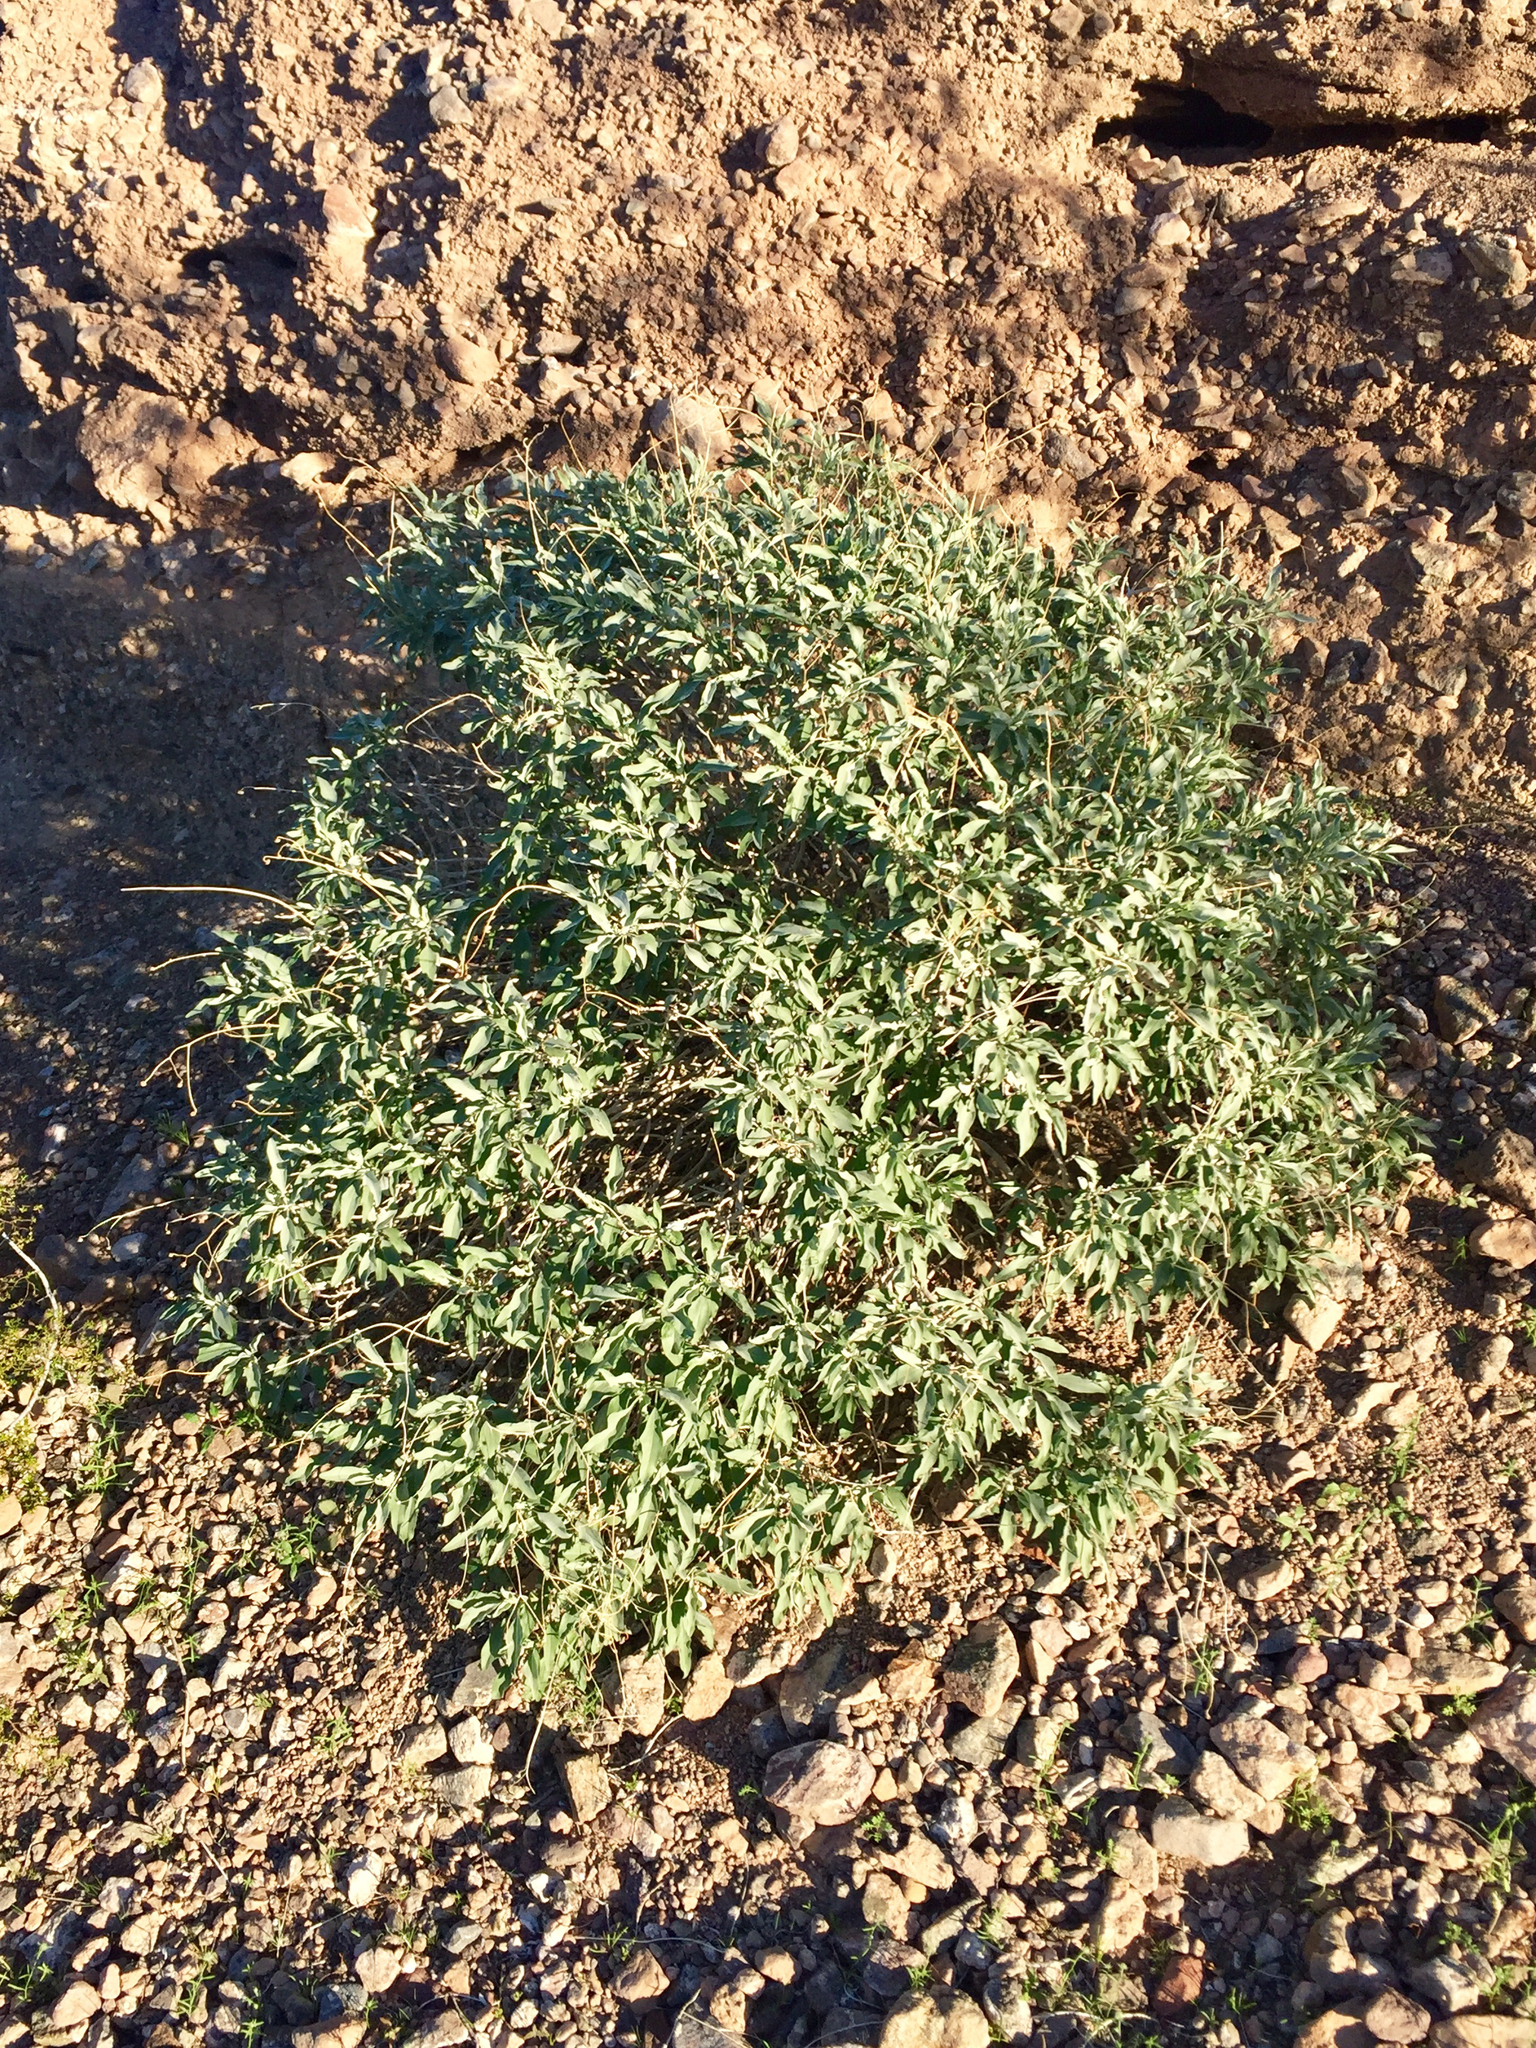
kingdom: Plantae
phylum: Tracheophyta
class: Magnoliopsida
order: Asterales
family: Asteraceae
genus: Encelia
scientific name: Encelia farinosa
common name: Brittlebush
